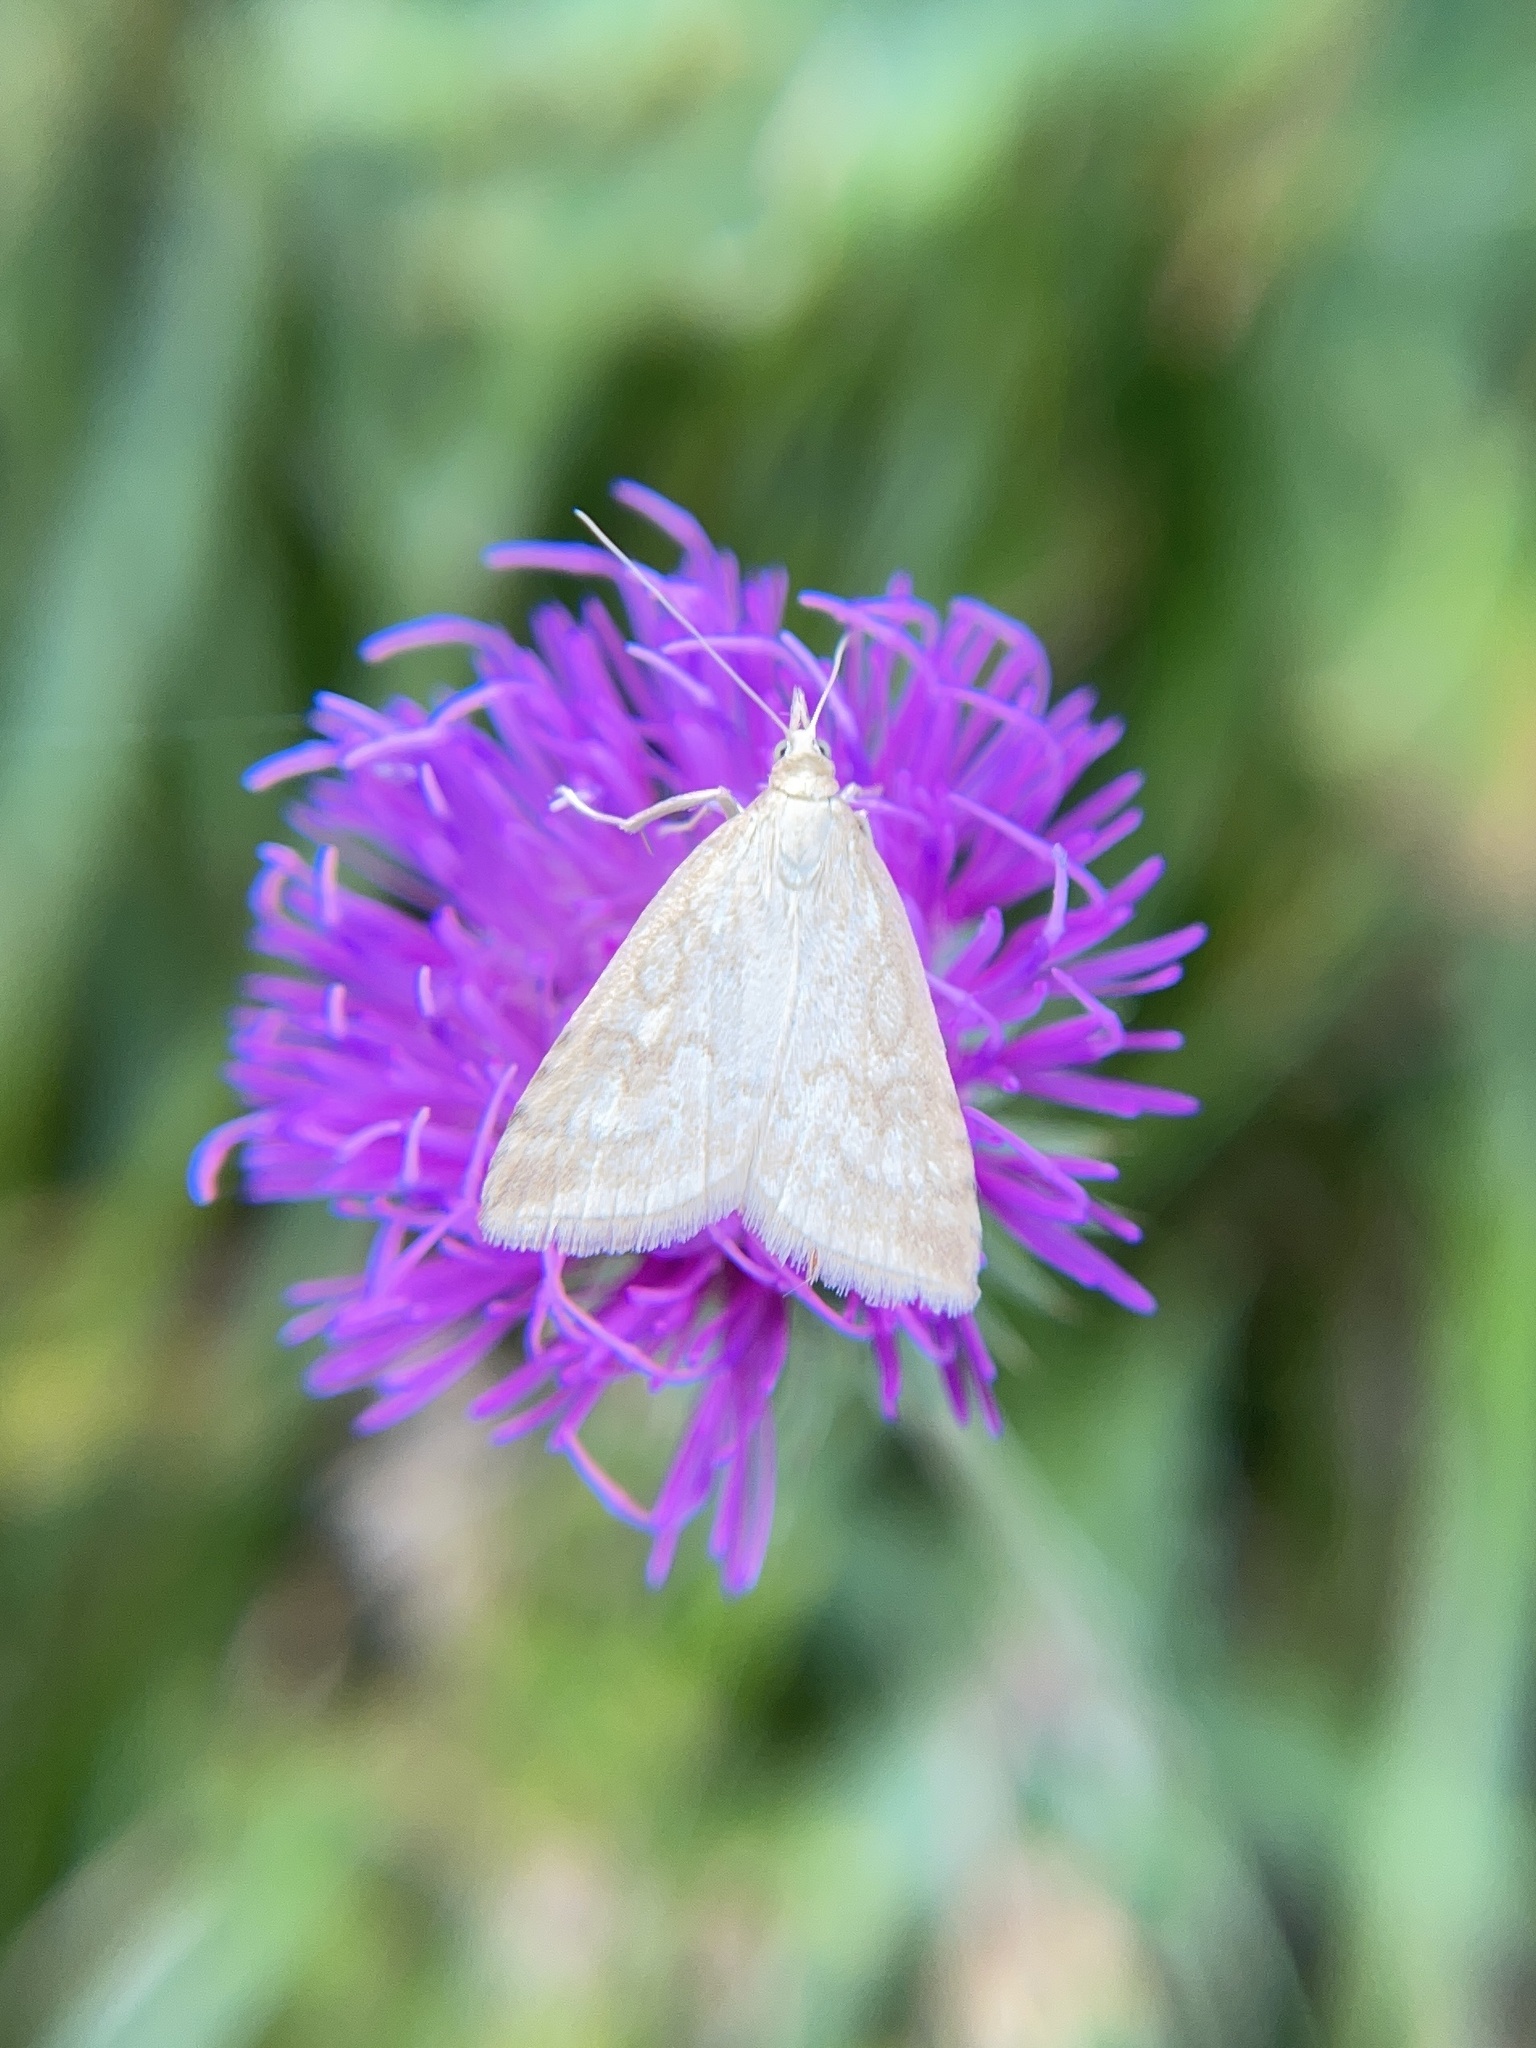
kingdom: Animalia
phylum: Arthropoda
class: Insecta
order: Lepidoptera
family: Crambidae
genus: Udea
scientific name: Udea lutealis
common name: Pale straw pearl
